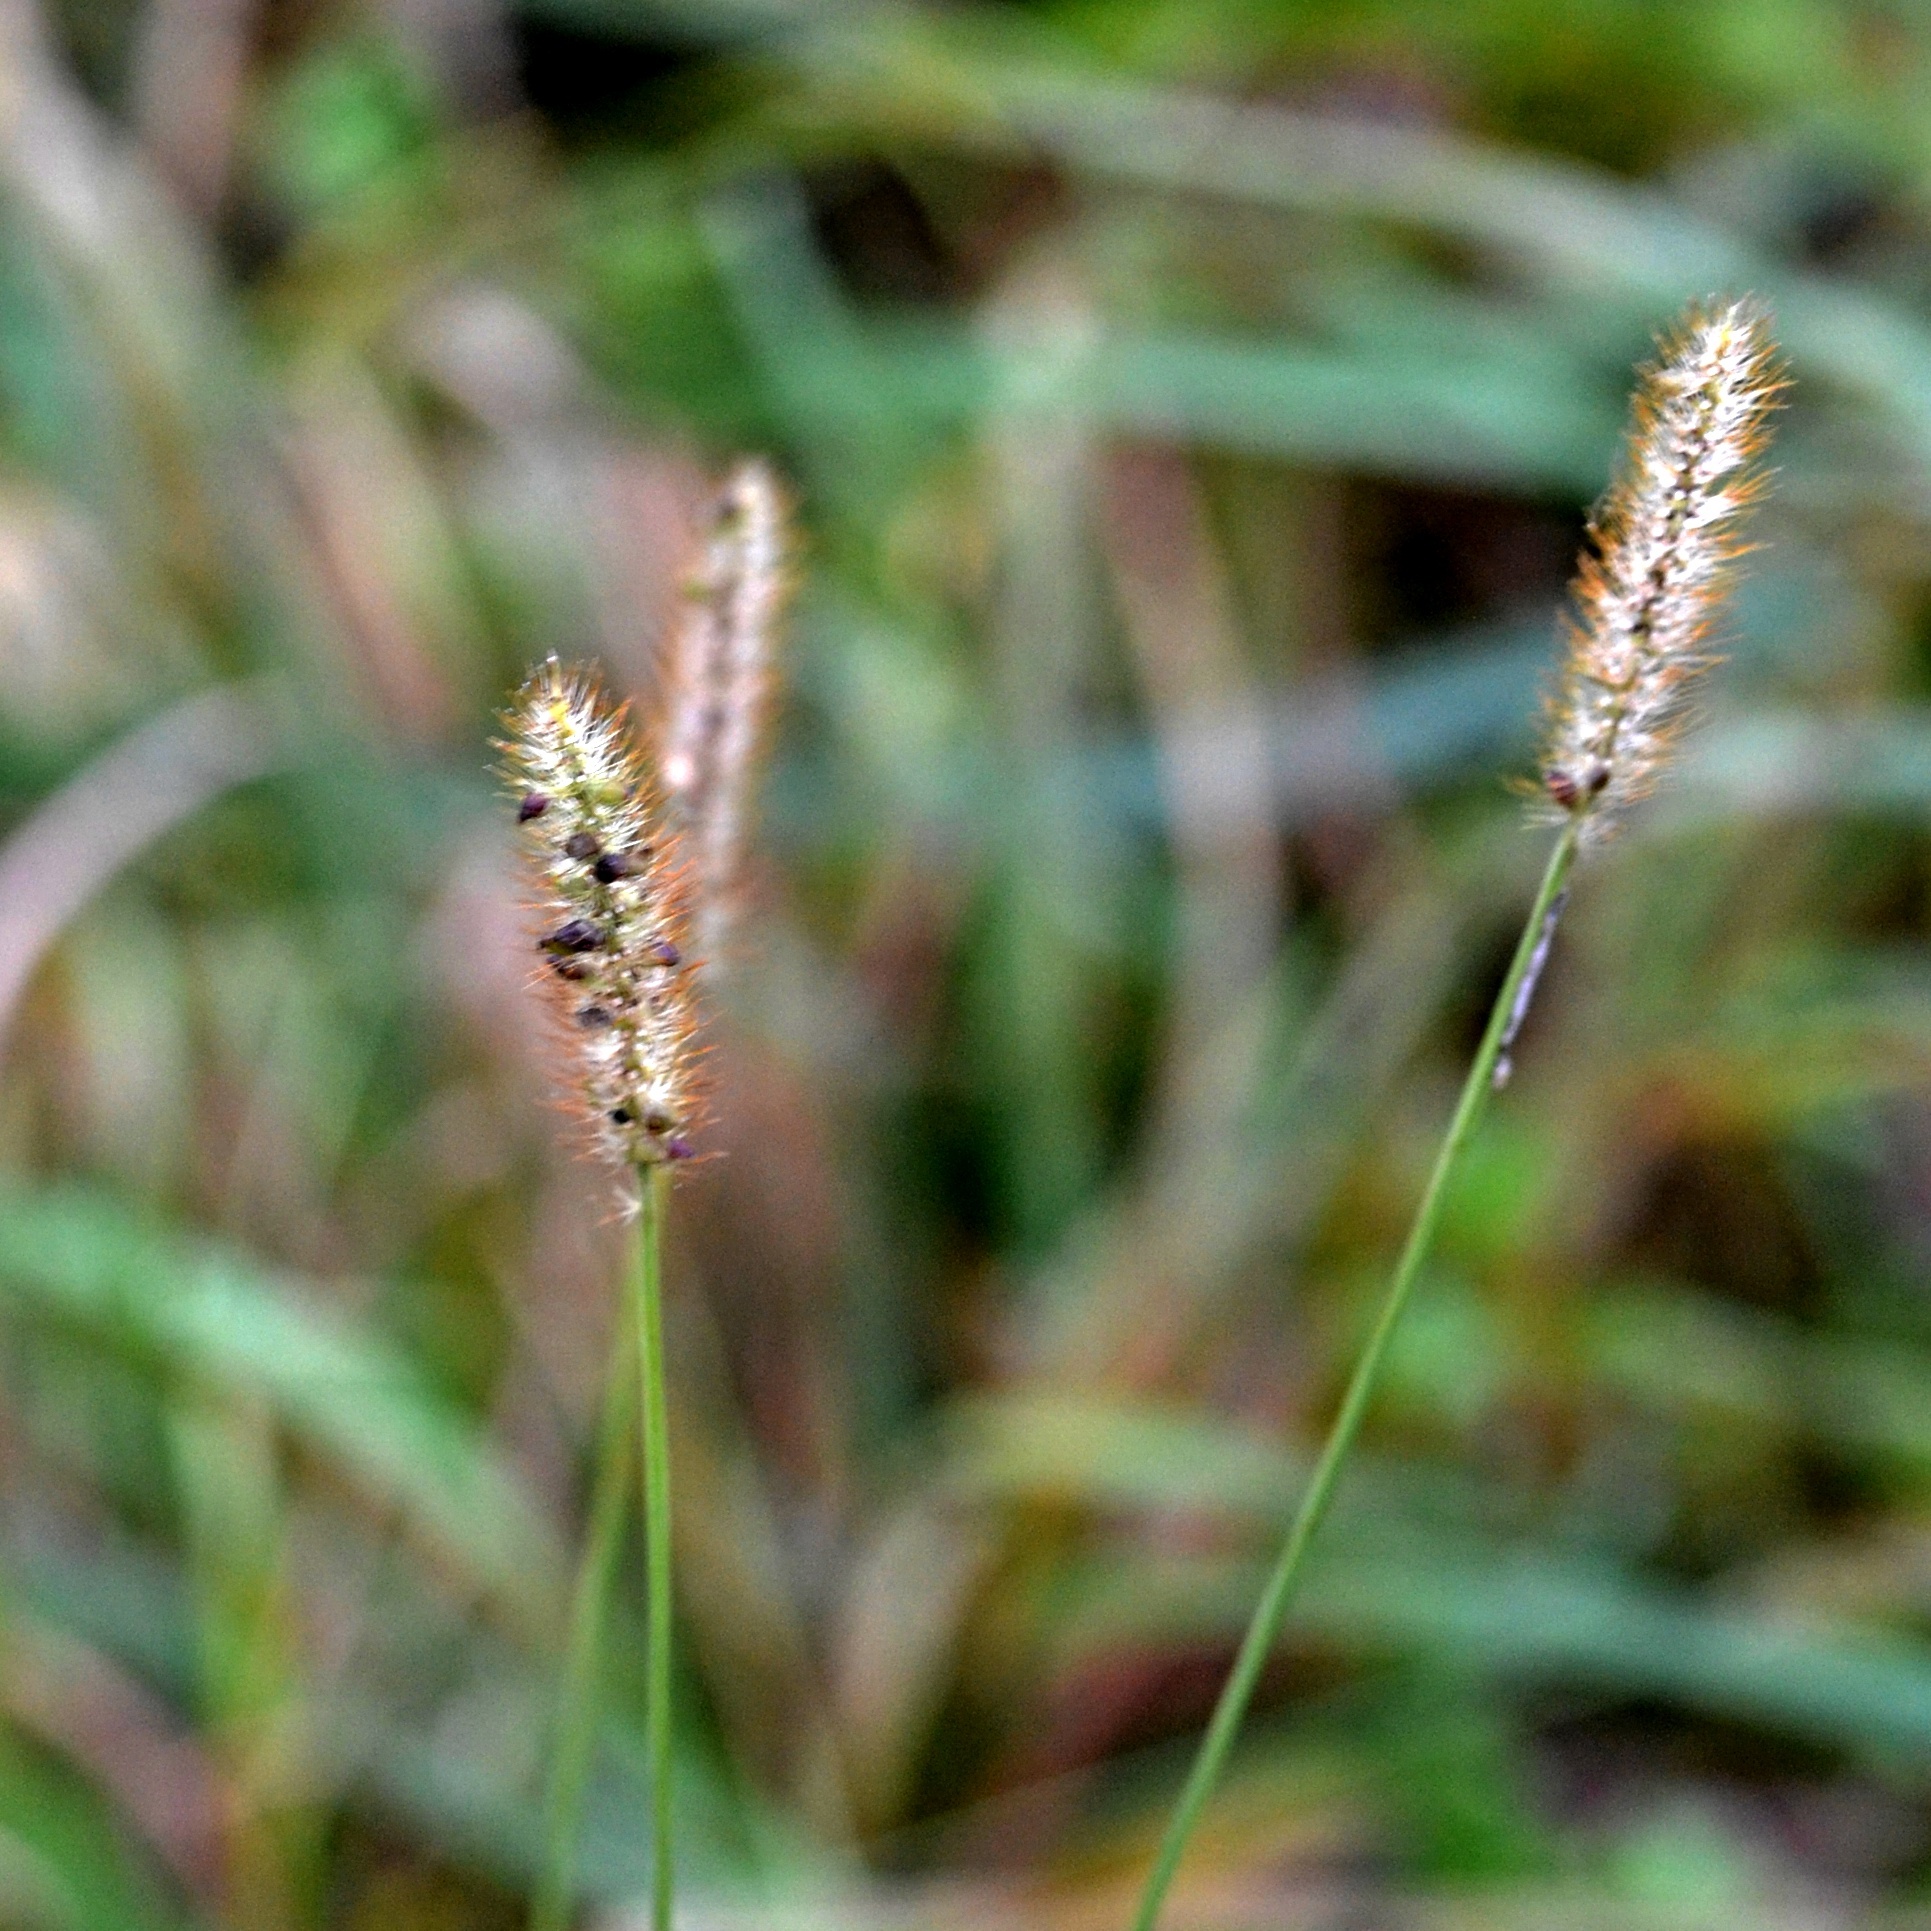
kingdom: Plantae
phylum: Tracheophyta
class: Liliopsida
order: Poales
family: Poaceae
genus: Setaria
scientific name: Setaria pumila
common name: Yellow bristle-grass
